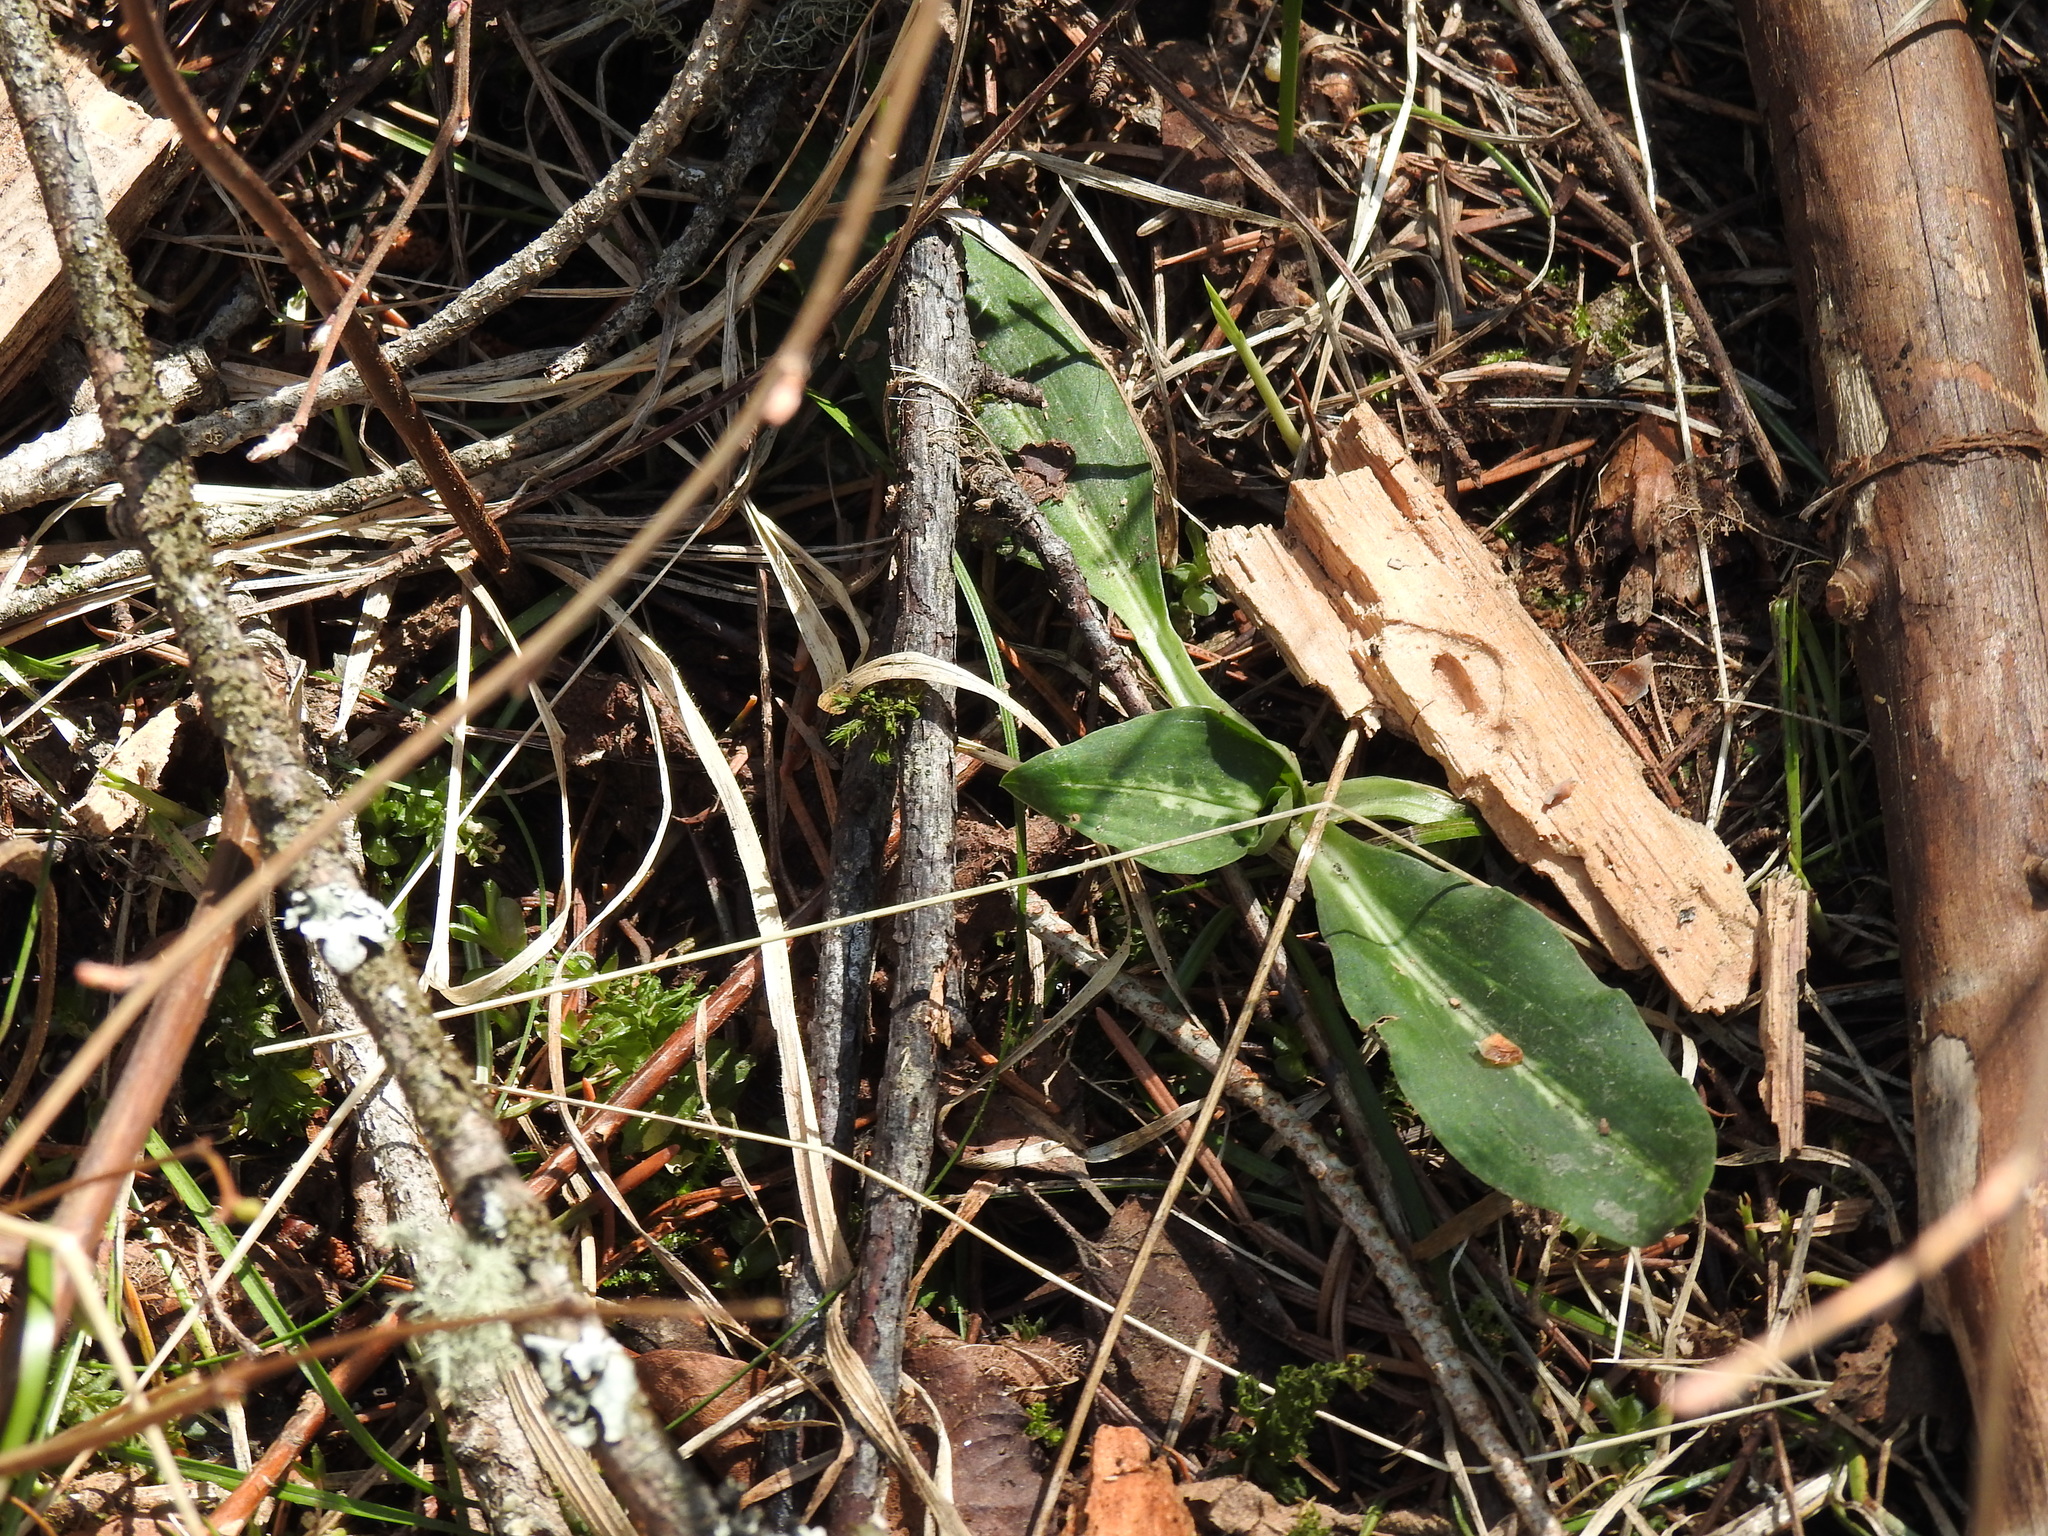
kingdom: Plantae
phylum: Tracheophyta
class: Liliopsida
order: Asparagales
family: Orchidaceae
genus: Goodyera
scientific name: Goodyera oblongifolia
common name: Giant rattlesnake-plantain
